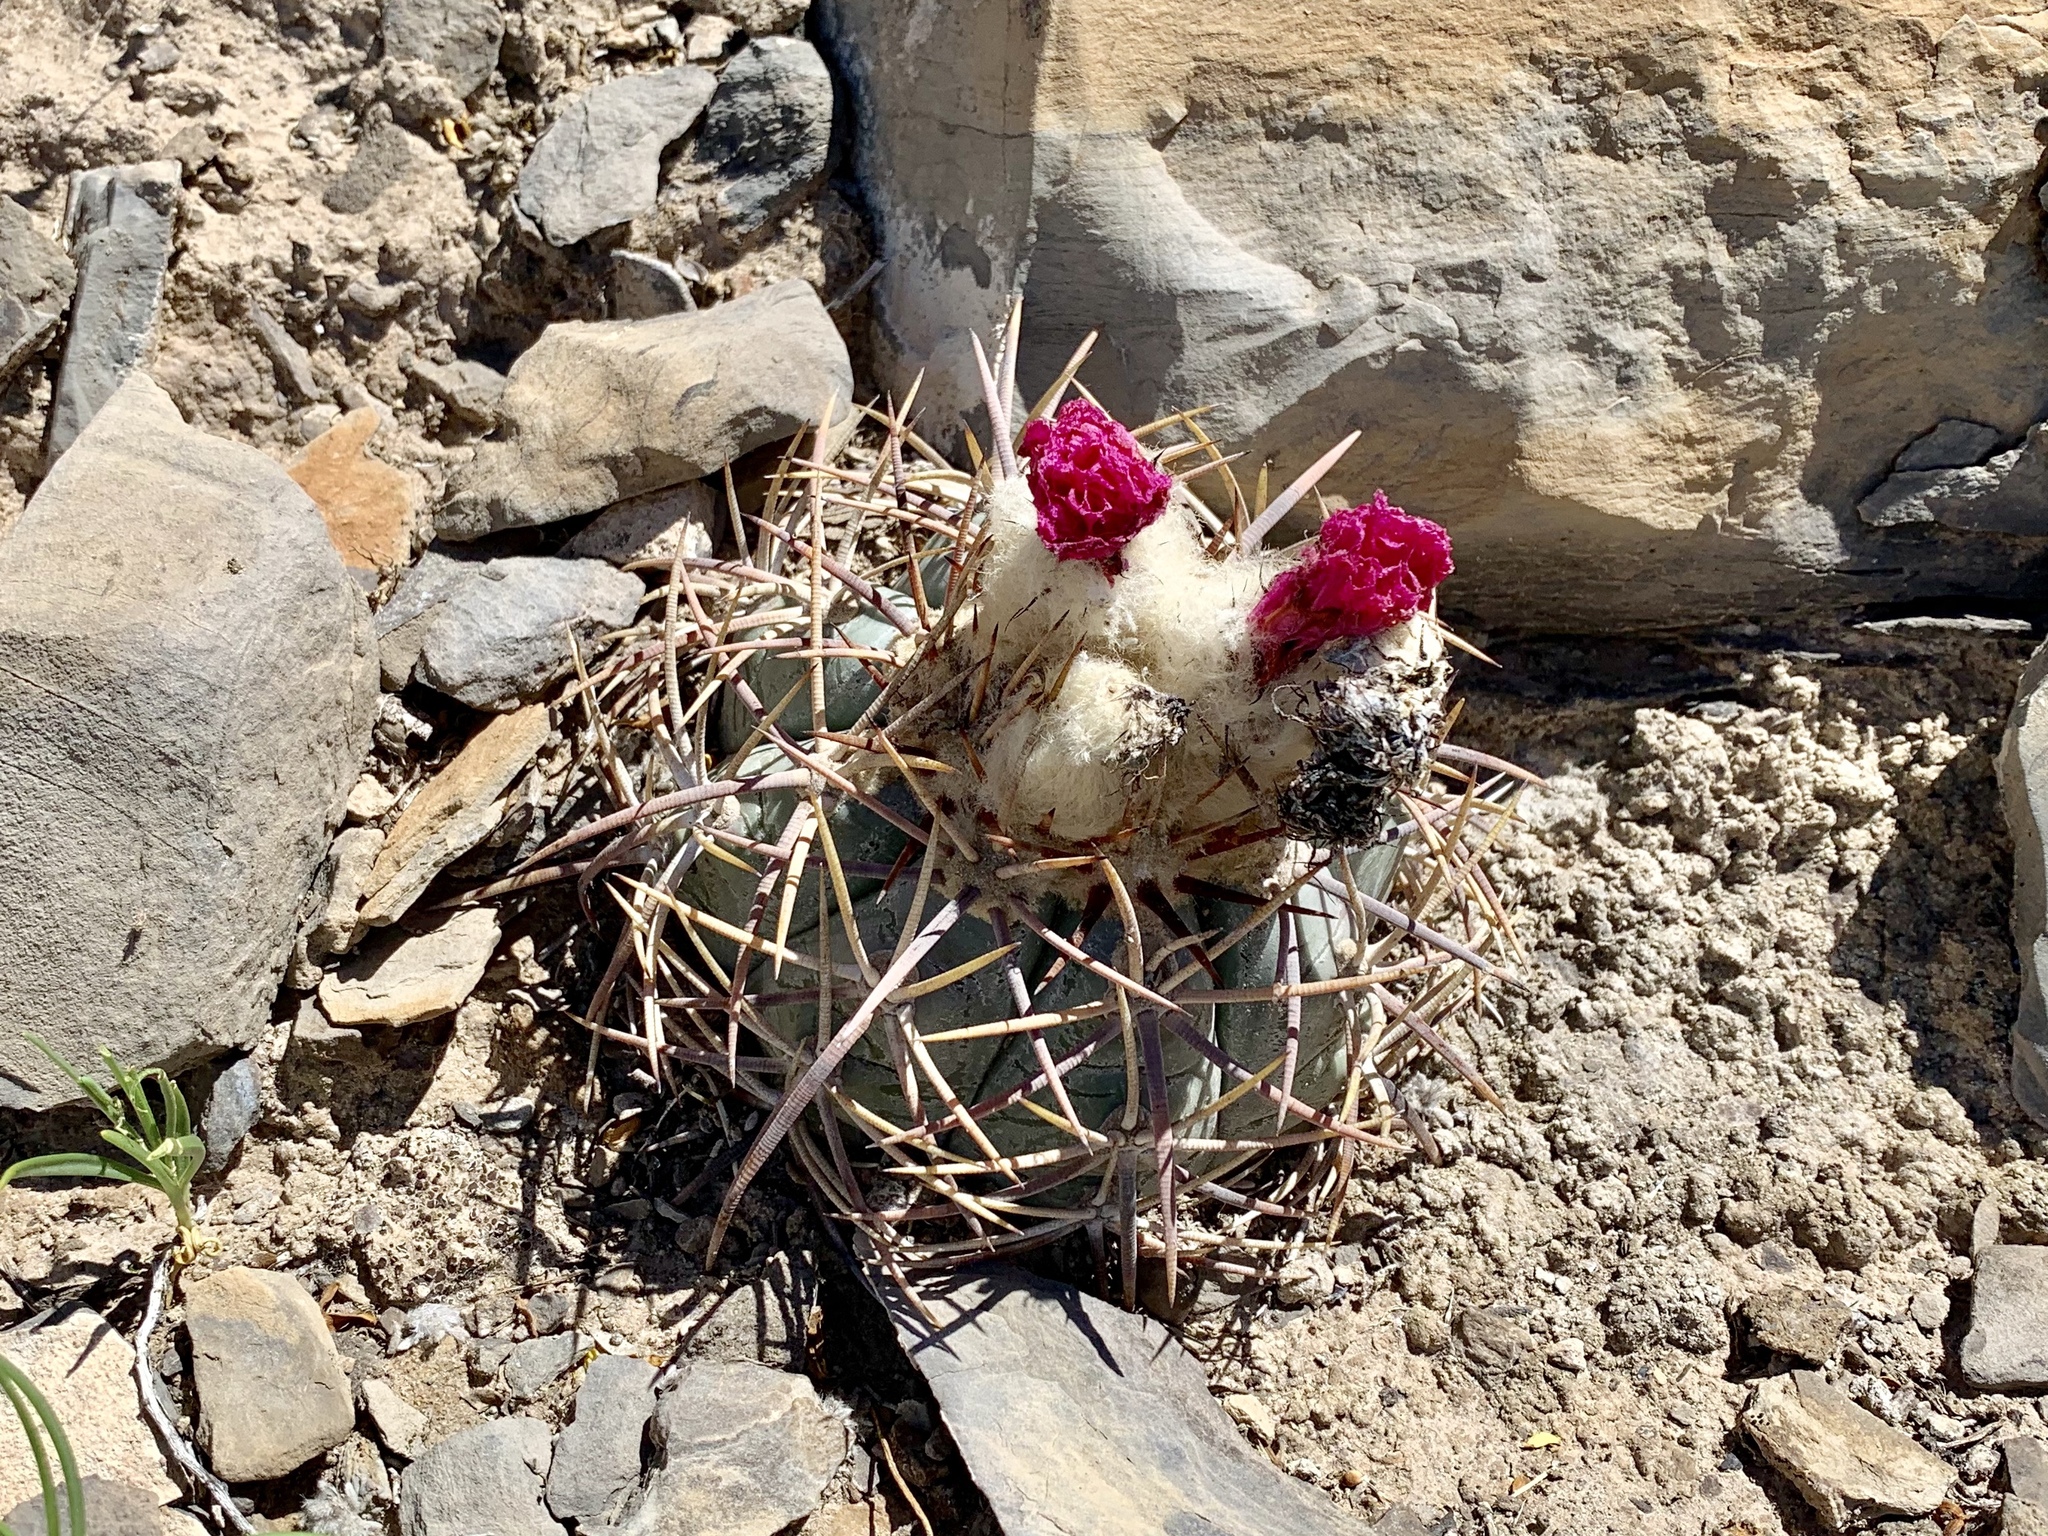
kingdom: Plantae
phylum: Tracheophyta
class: Magnoliopsida
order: Caryophyllales
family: Cactaceae
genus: Echinocactus
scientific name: Echinocactus horizonthalonius
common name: Devilshead
